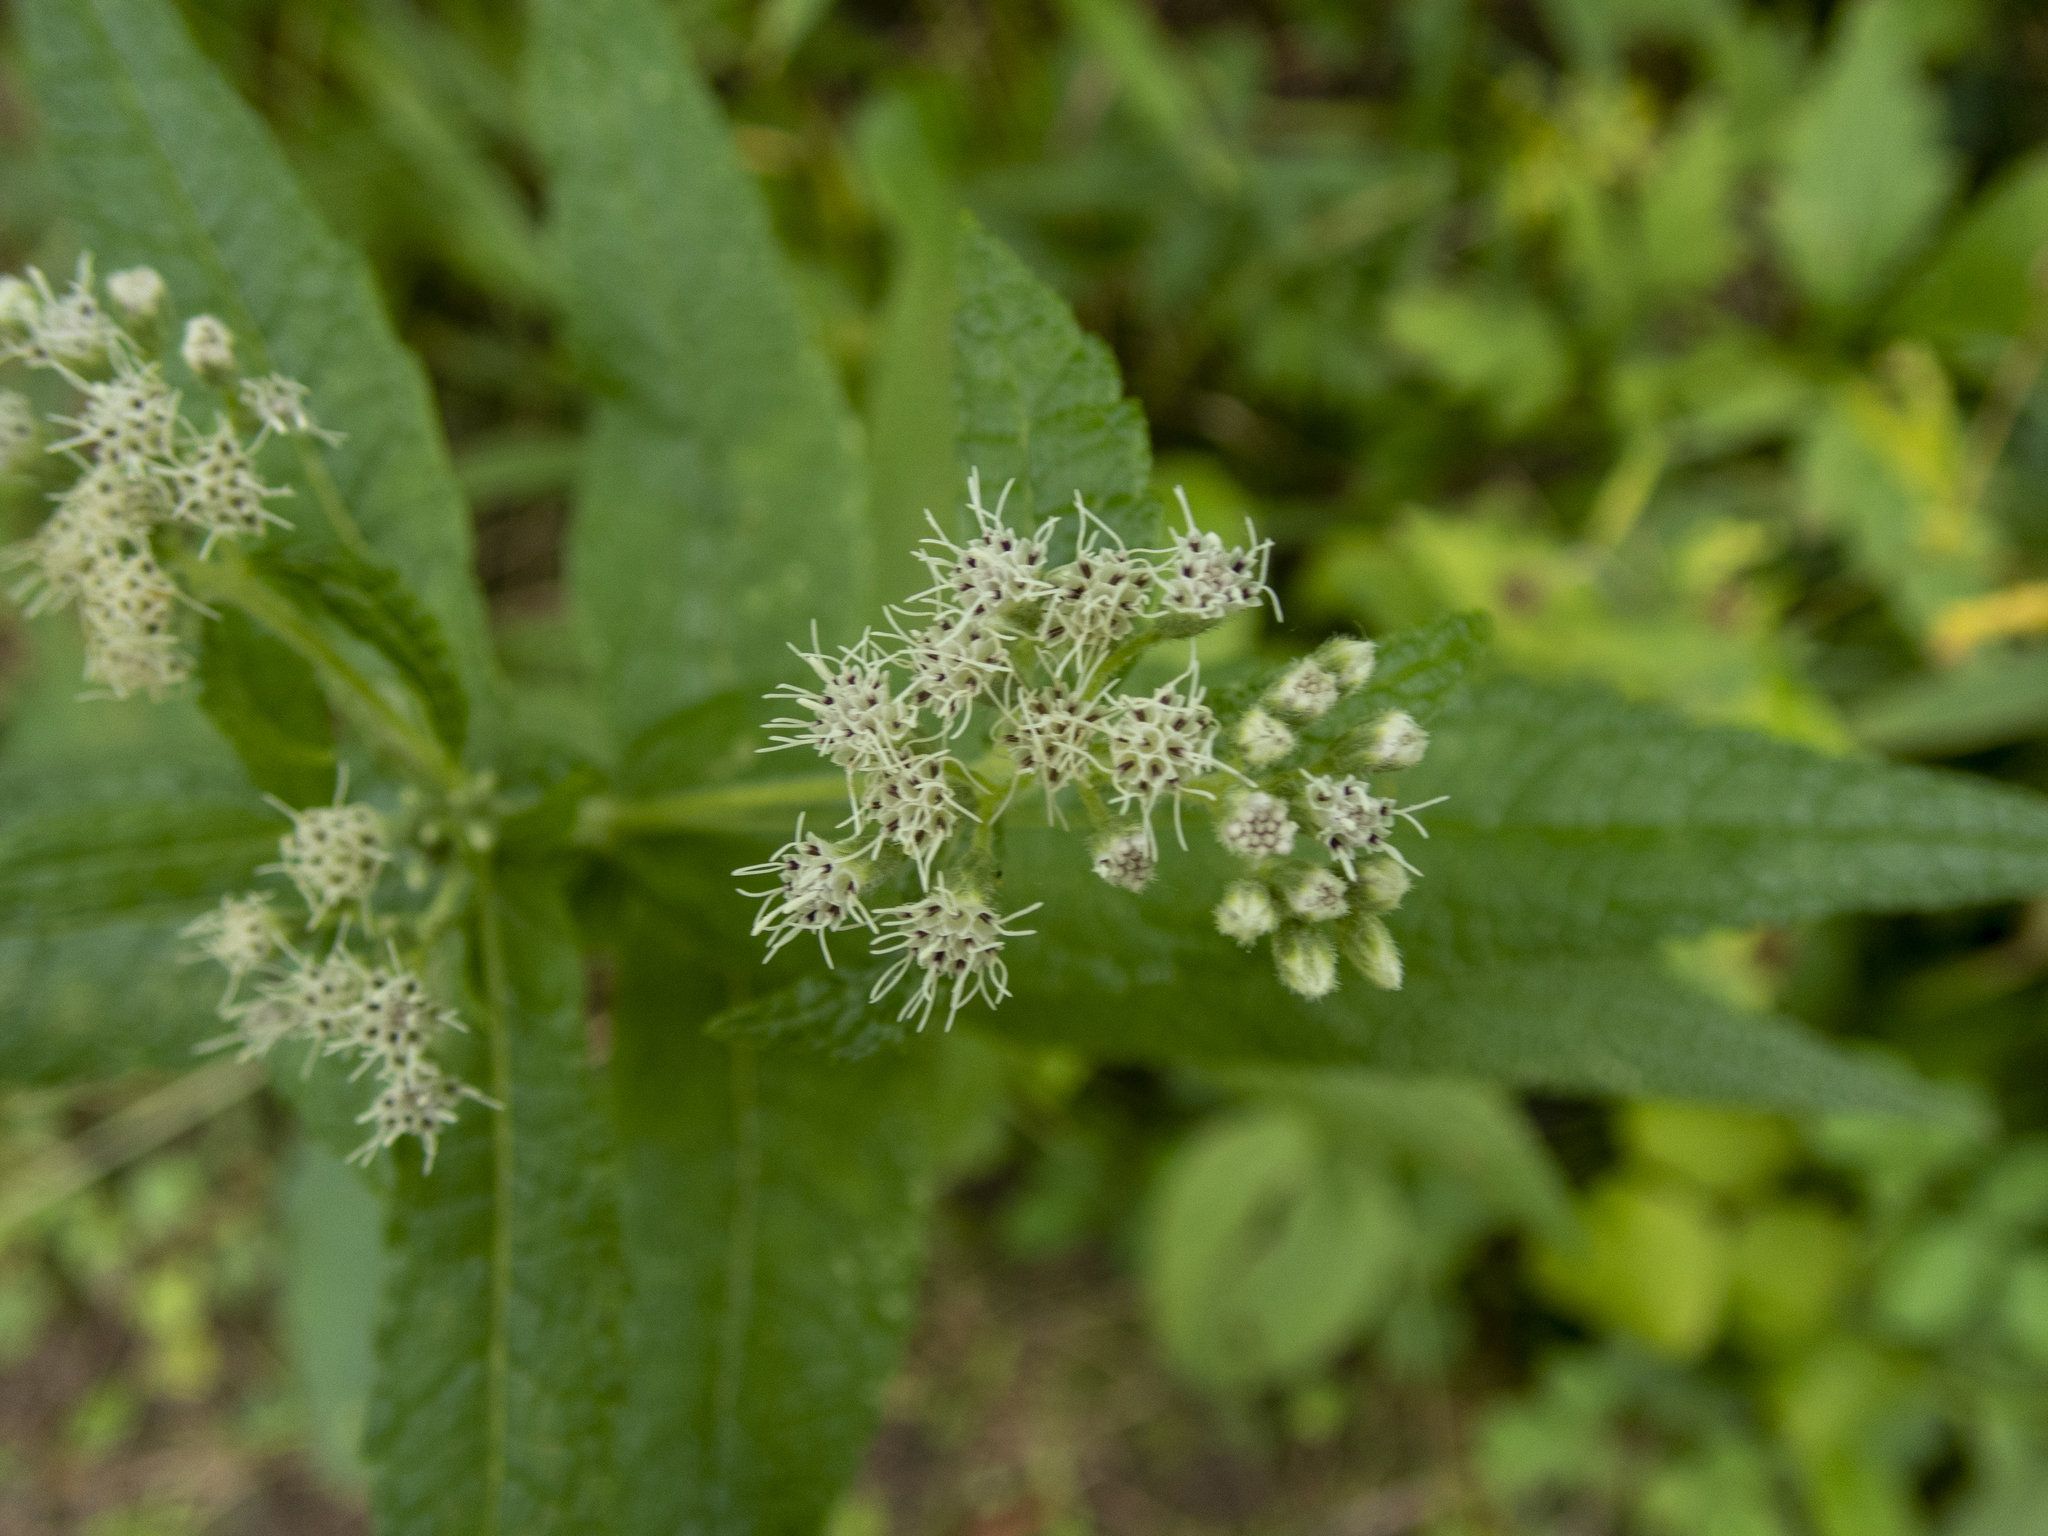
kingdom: Plantae
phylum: Tracheophyta
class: Magnoliopsida
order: Asterales
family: Asteraceae
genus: Eupatorium
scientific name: Eupatorium perfoliatum
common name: Boneset
